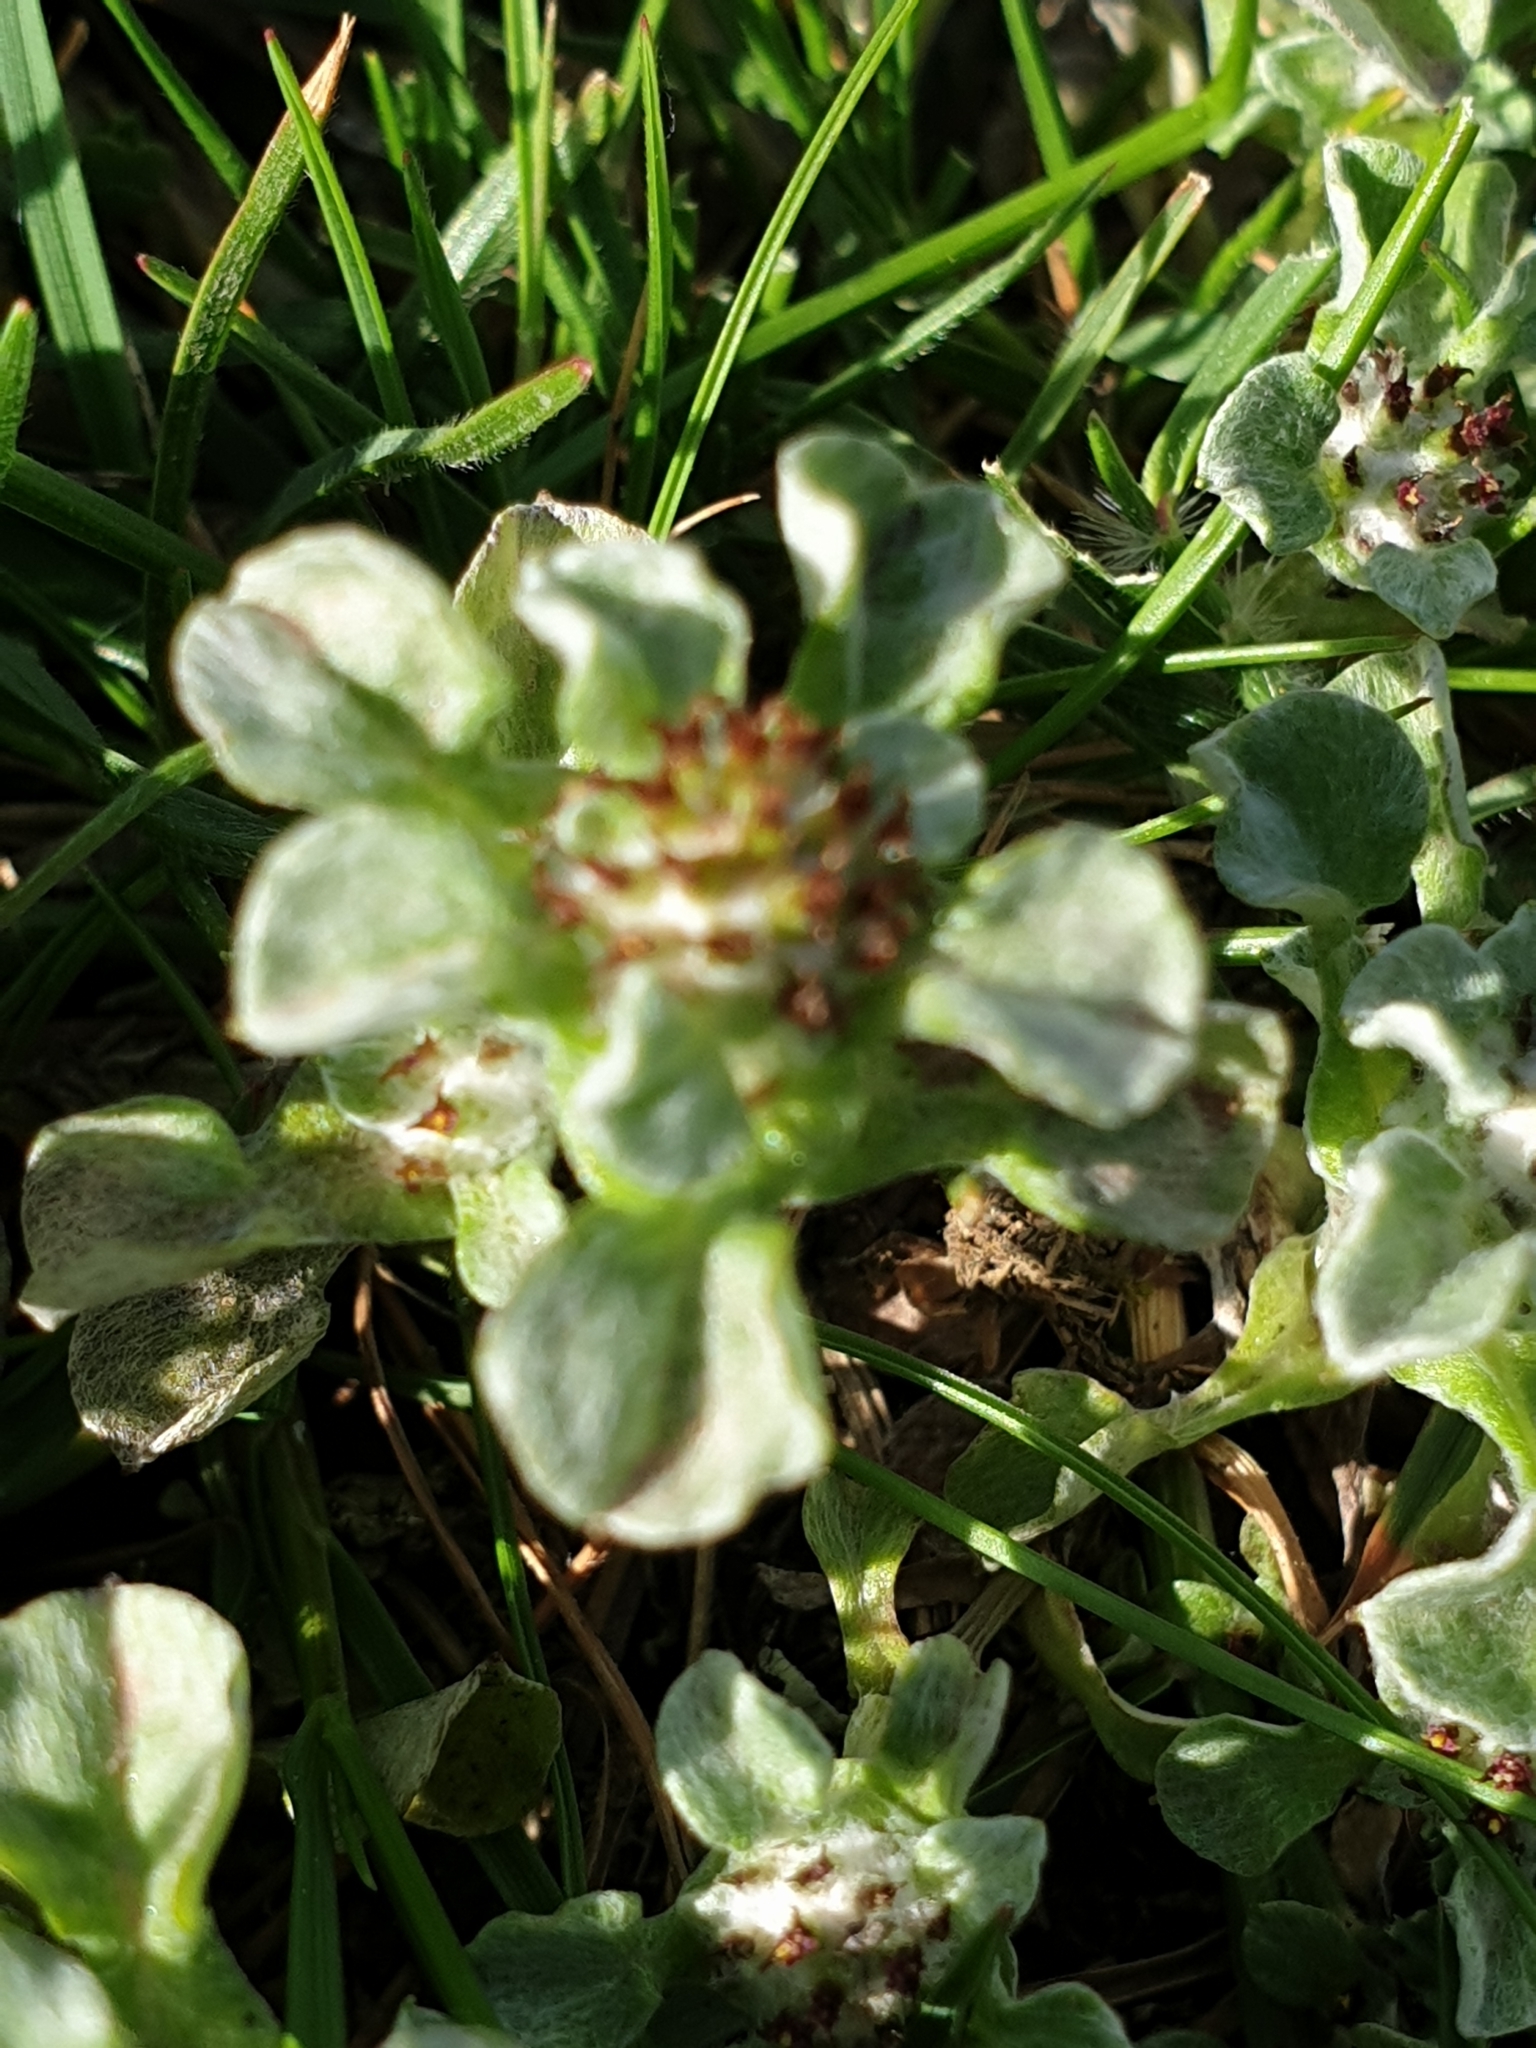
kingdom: Plantae
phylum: Tracheophyta
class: Magnoliopsida
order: Asterales
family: Asteraceae
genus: Stuartina
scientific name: Stuartina muelleri
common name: Spoon-leaved cudweed
